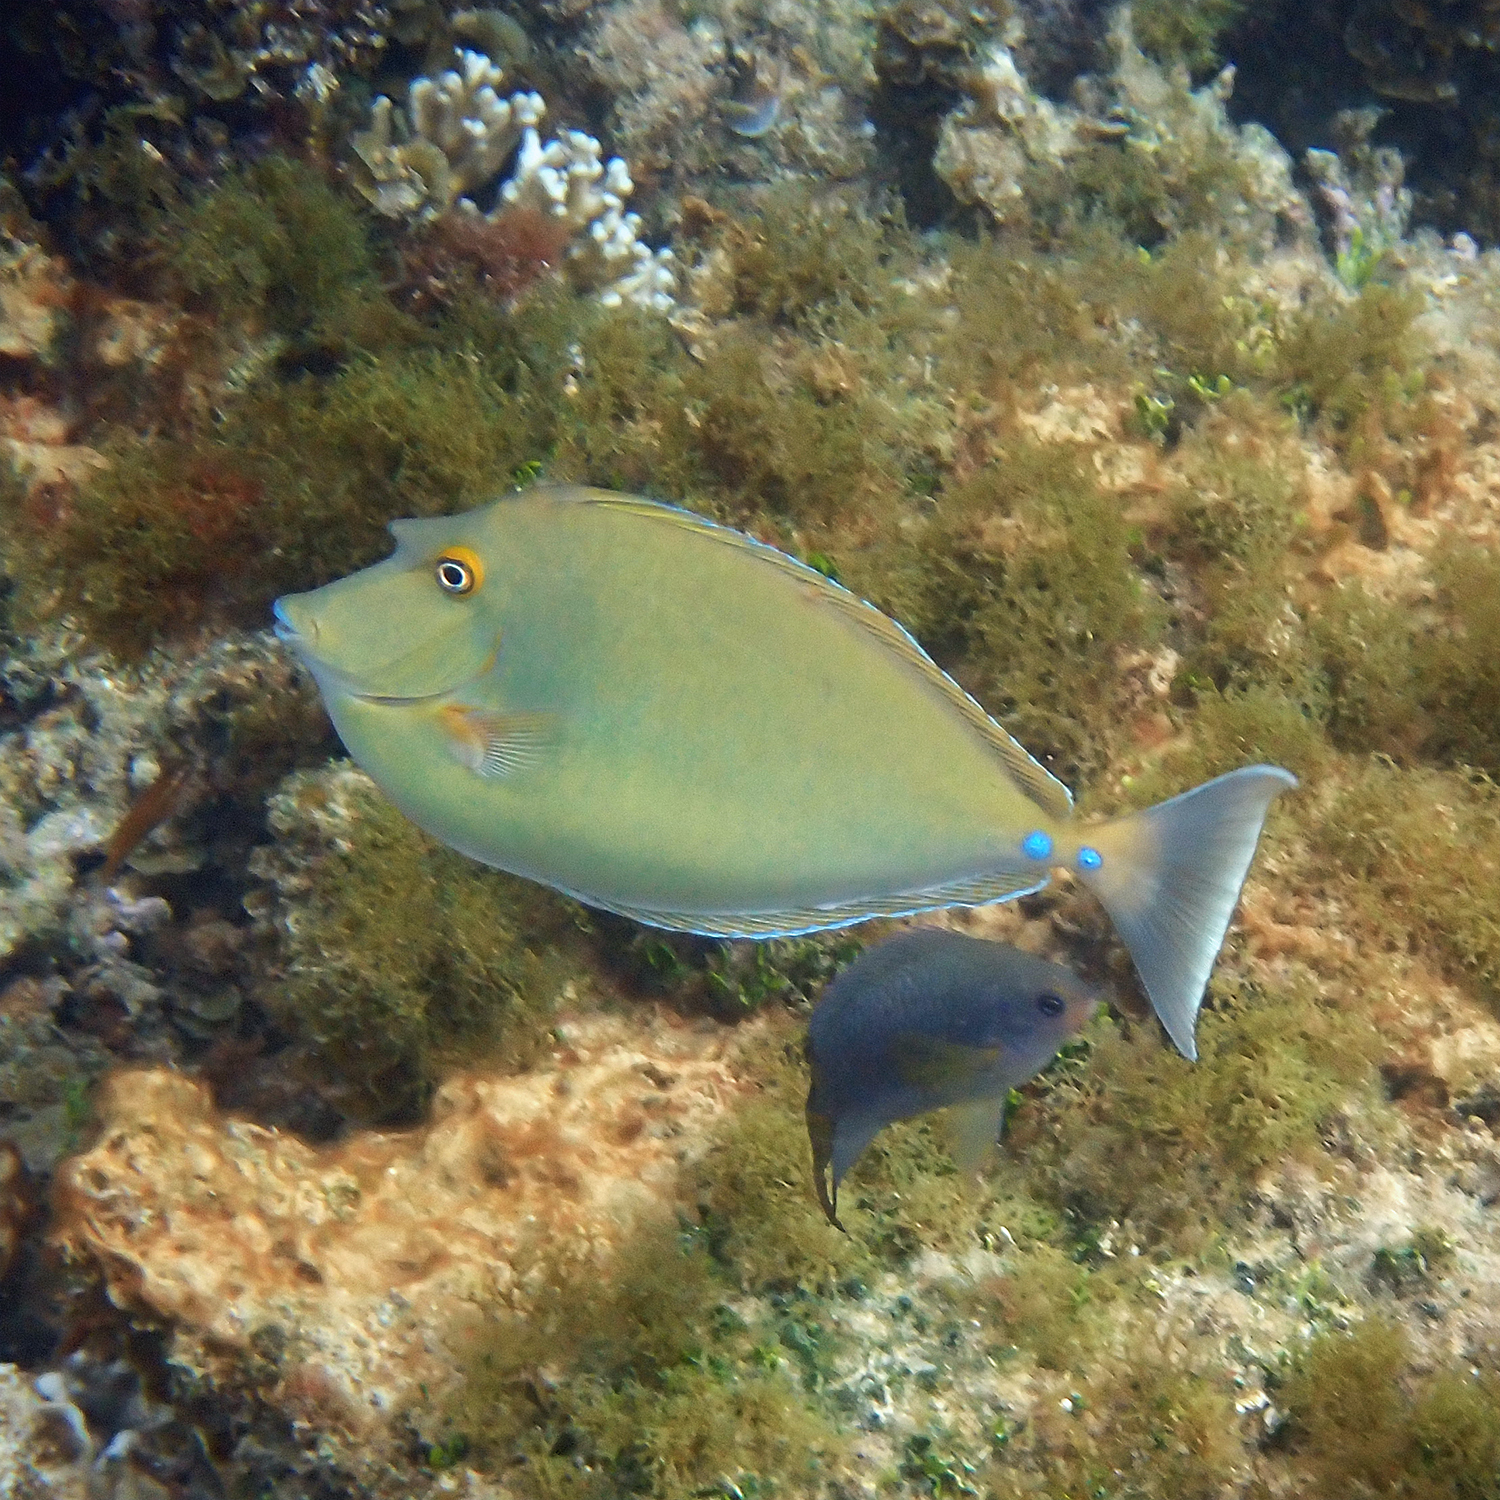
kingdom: Animalia
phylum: Chordata
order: Perciformes
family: Acanthuridae
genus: Naso
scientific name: Naso unicornis
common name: Bluespine unicornfish
